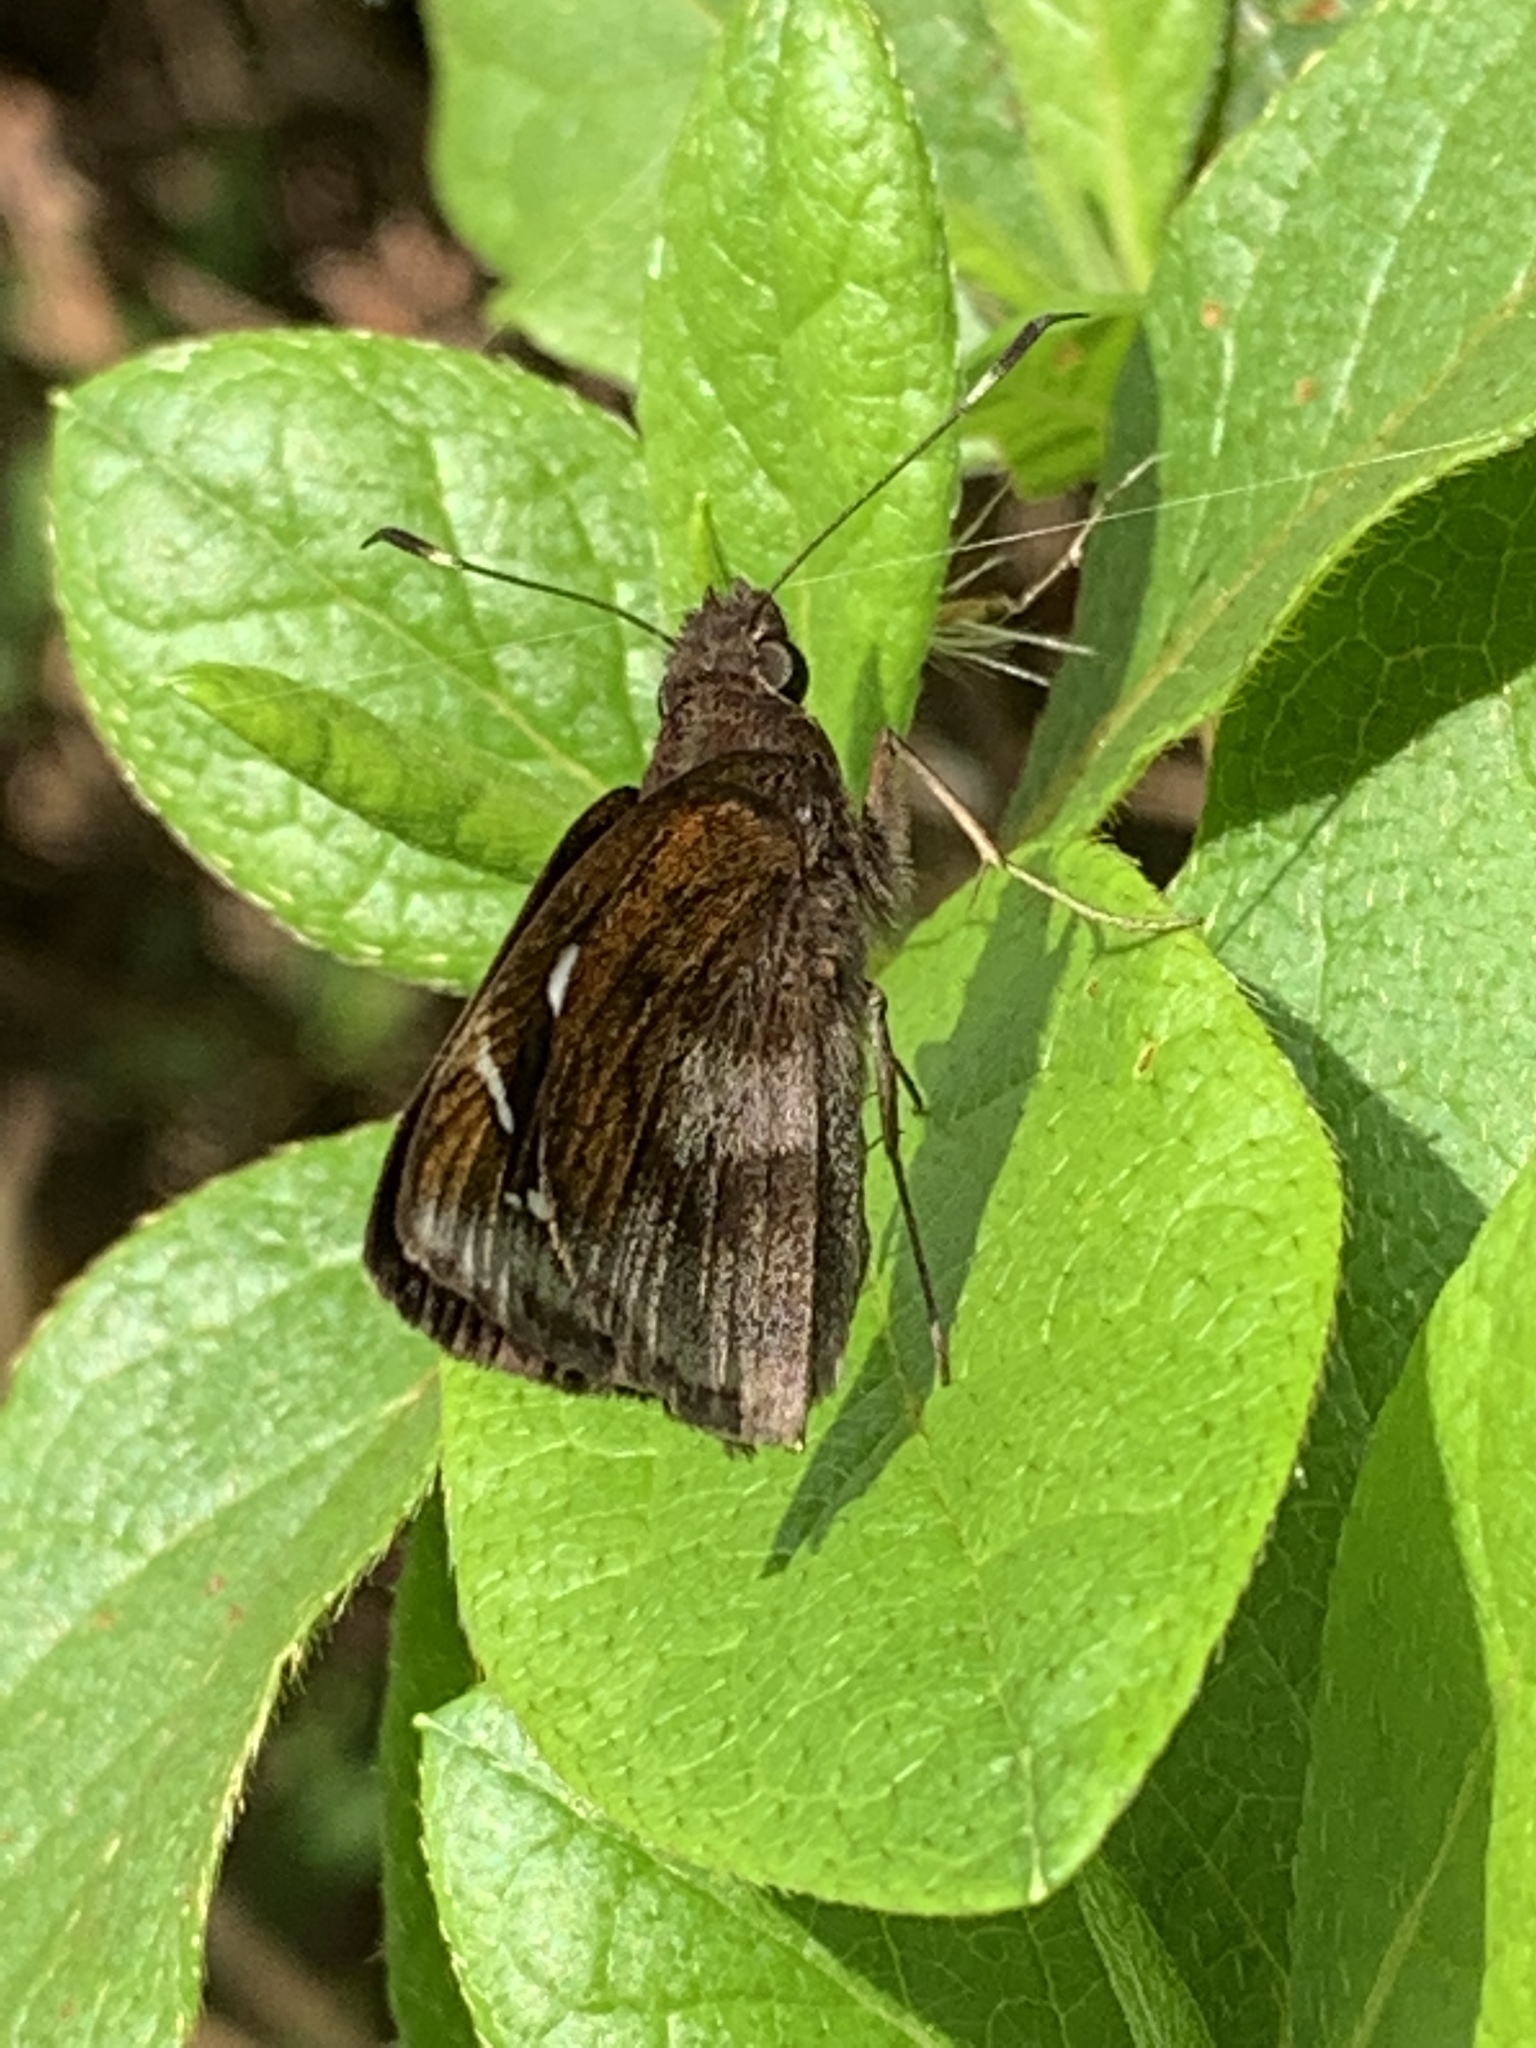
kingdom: Animalia
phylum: Arthropoda
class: Insecta
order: Lepidoptera
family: Hesperiidae
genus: Notocrypta
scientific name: Notocrypta curvifascia
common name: Restricted demon
